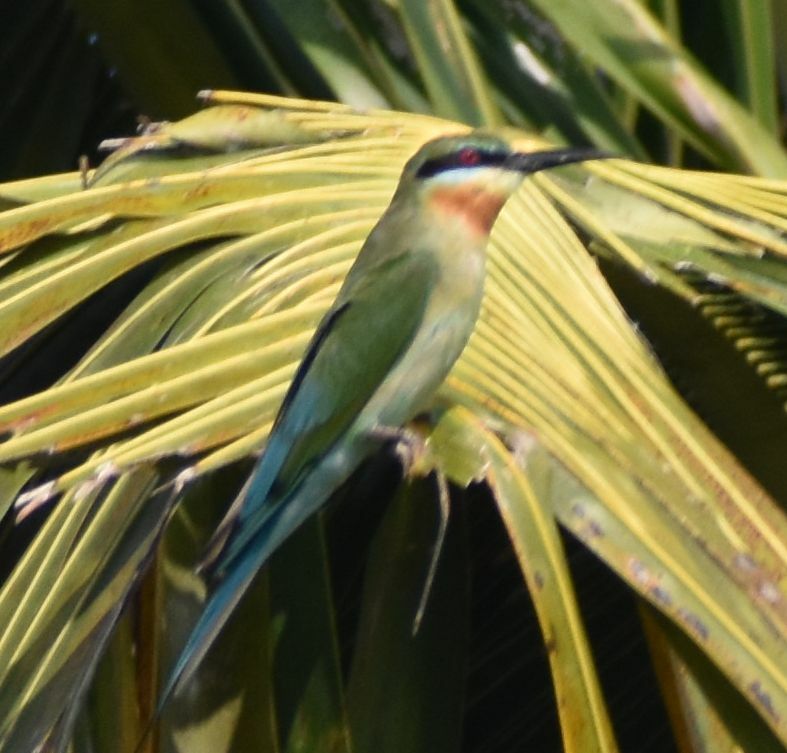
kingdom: Animalia
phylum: Chordata
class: Aves
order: Coraciiformes
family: Meropidae
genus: Merops
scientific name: Merops philippinus
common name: Blue-tailed bee-eater
